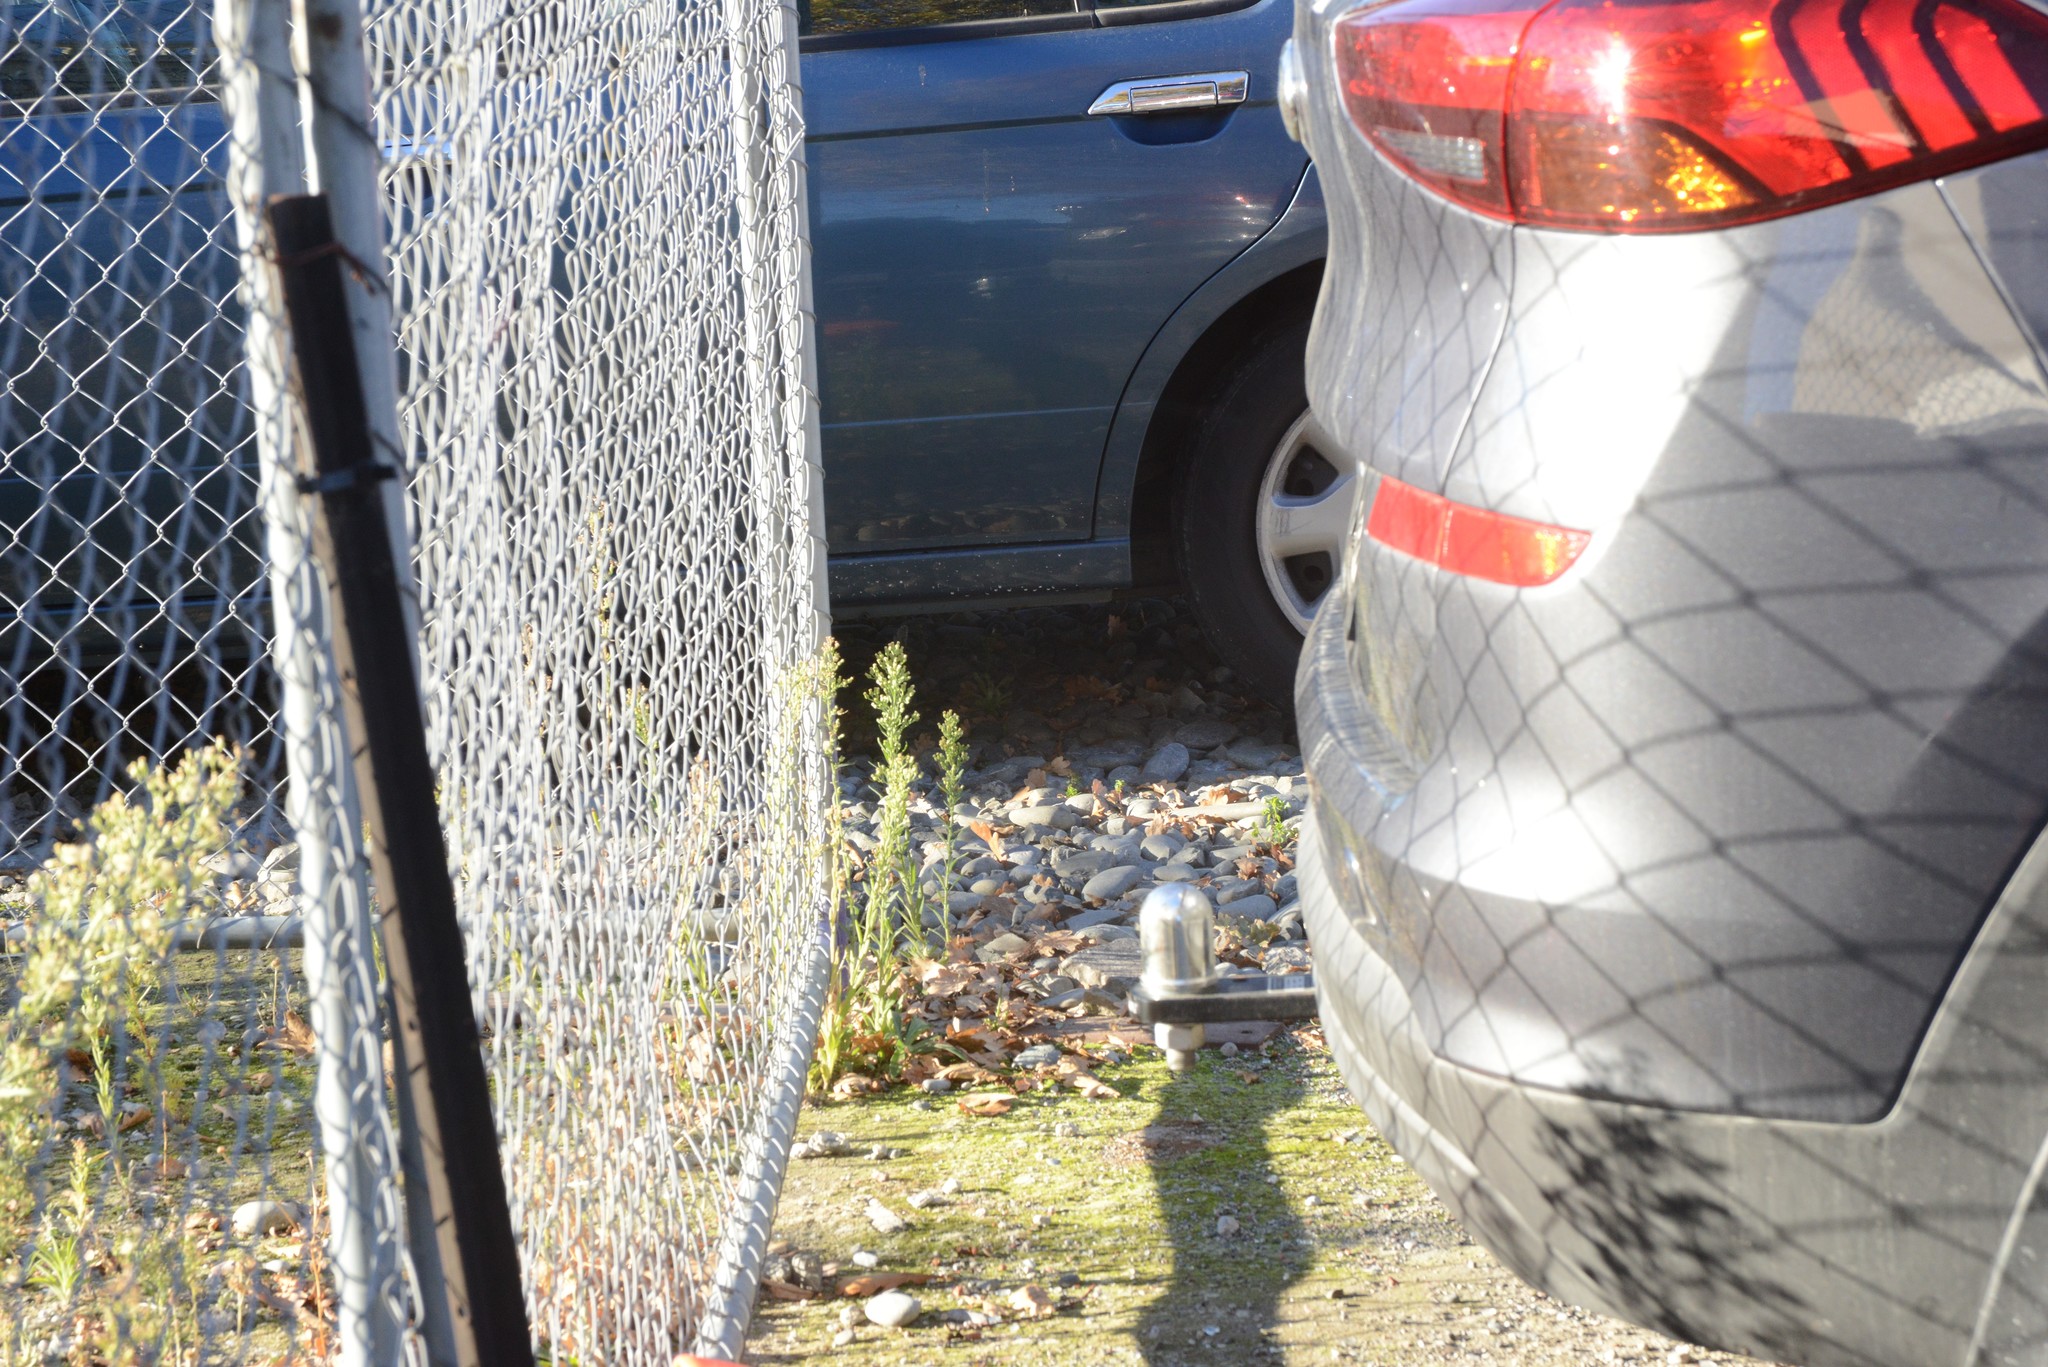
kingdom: Animalia
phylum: Chordata
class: Aves
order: Passeriformes
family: Prunellidae
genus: Prunella
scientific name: Prunella modularis
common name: Dunnock
